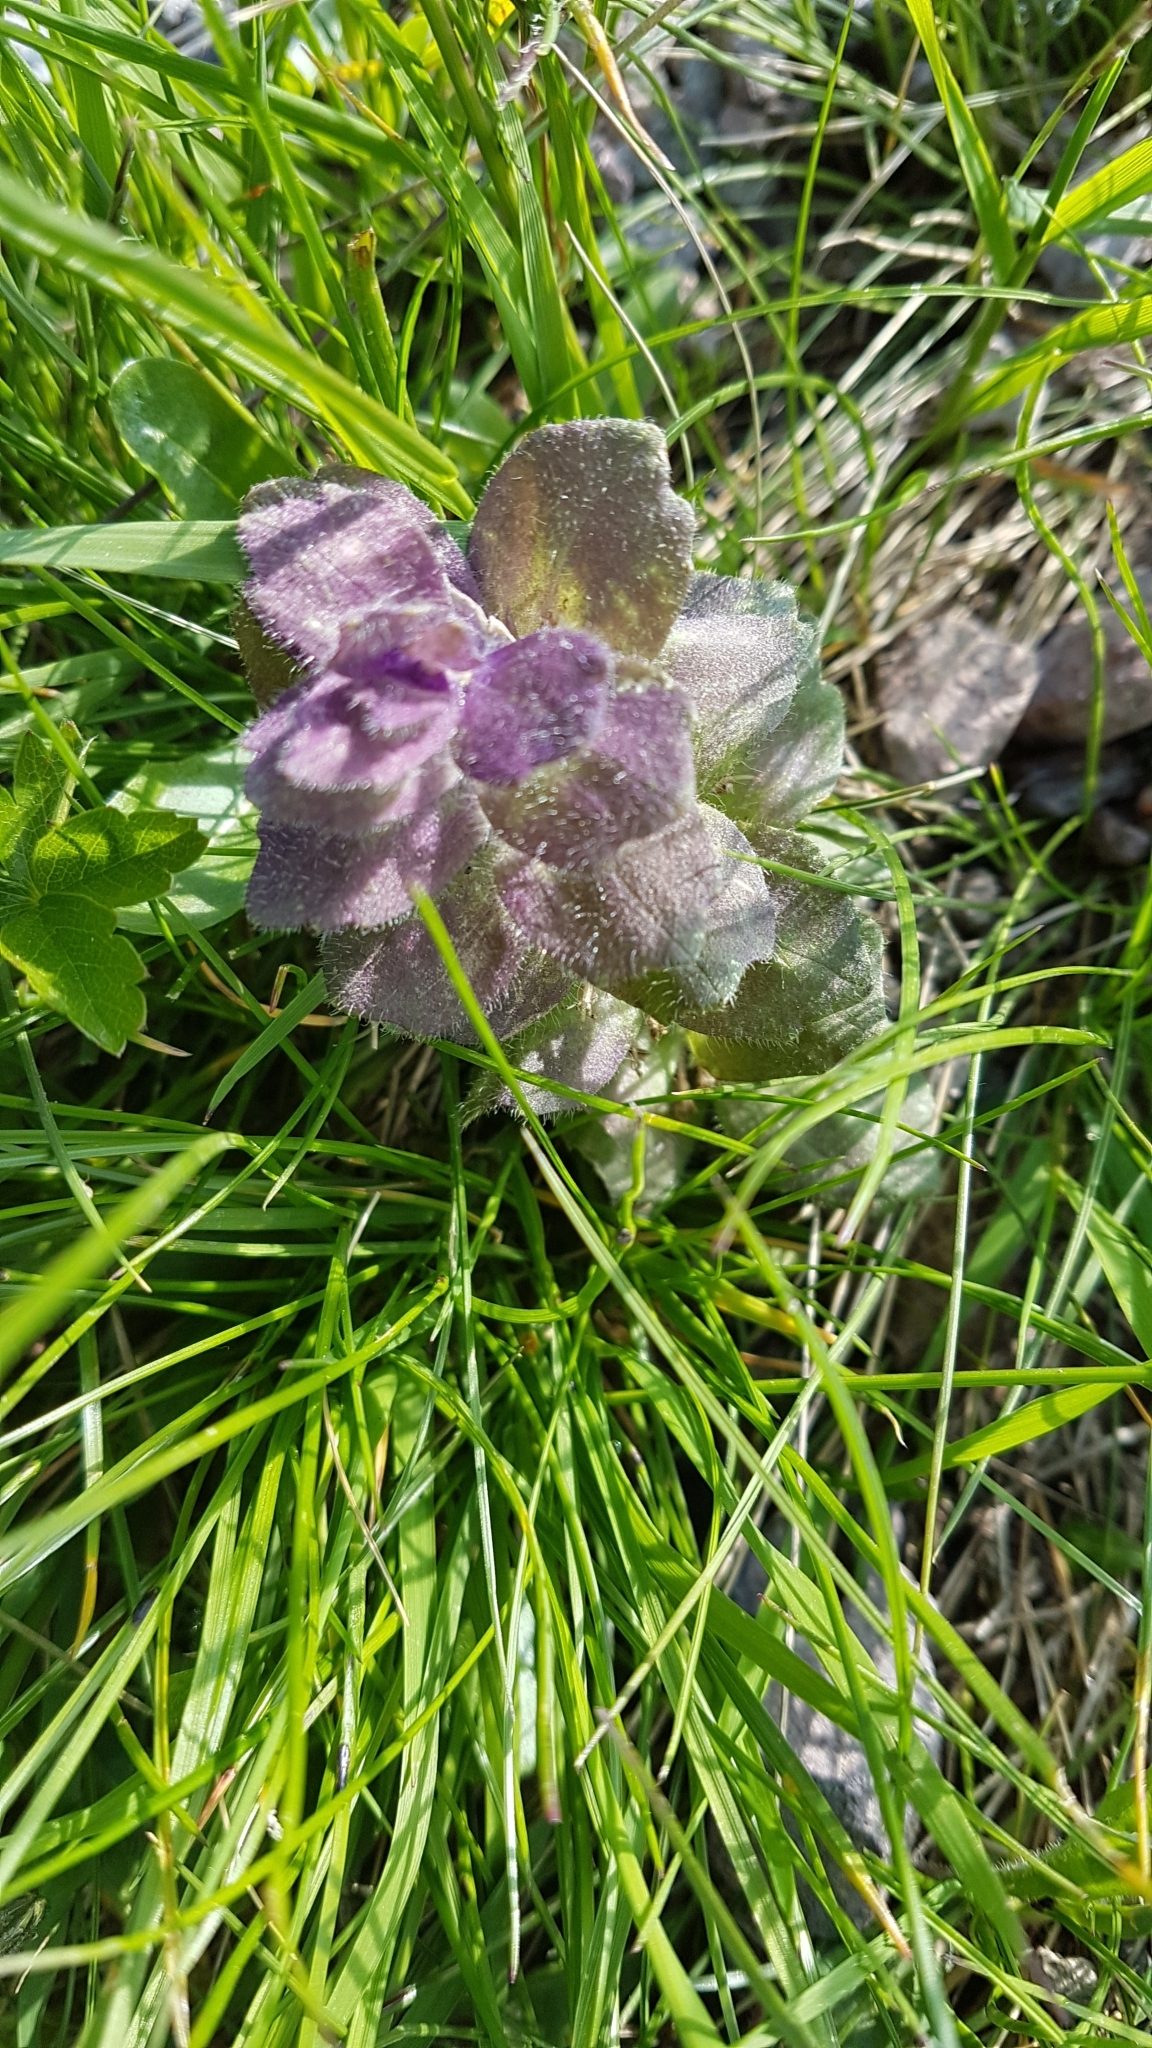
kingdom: Plantae
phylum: Tracheophyta
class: Magnoliopsida
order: Lamiales
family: Lamiaceae
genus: Ajuga
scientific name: Ajuga pyramidalis
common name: Pyramid bugle
